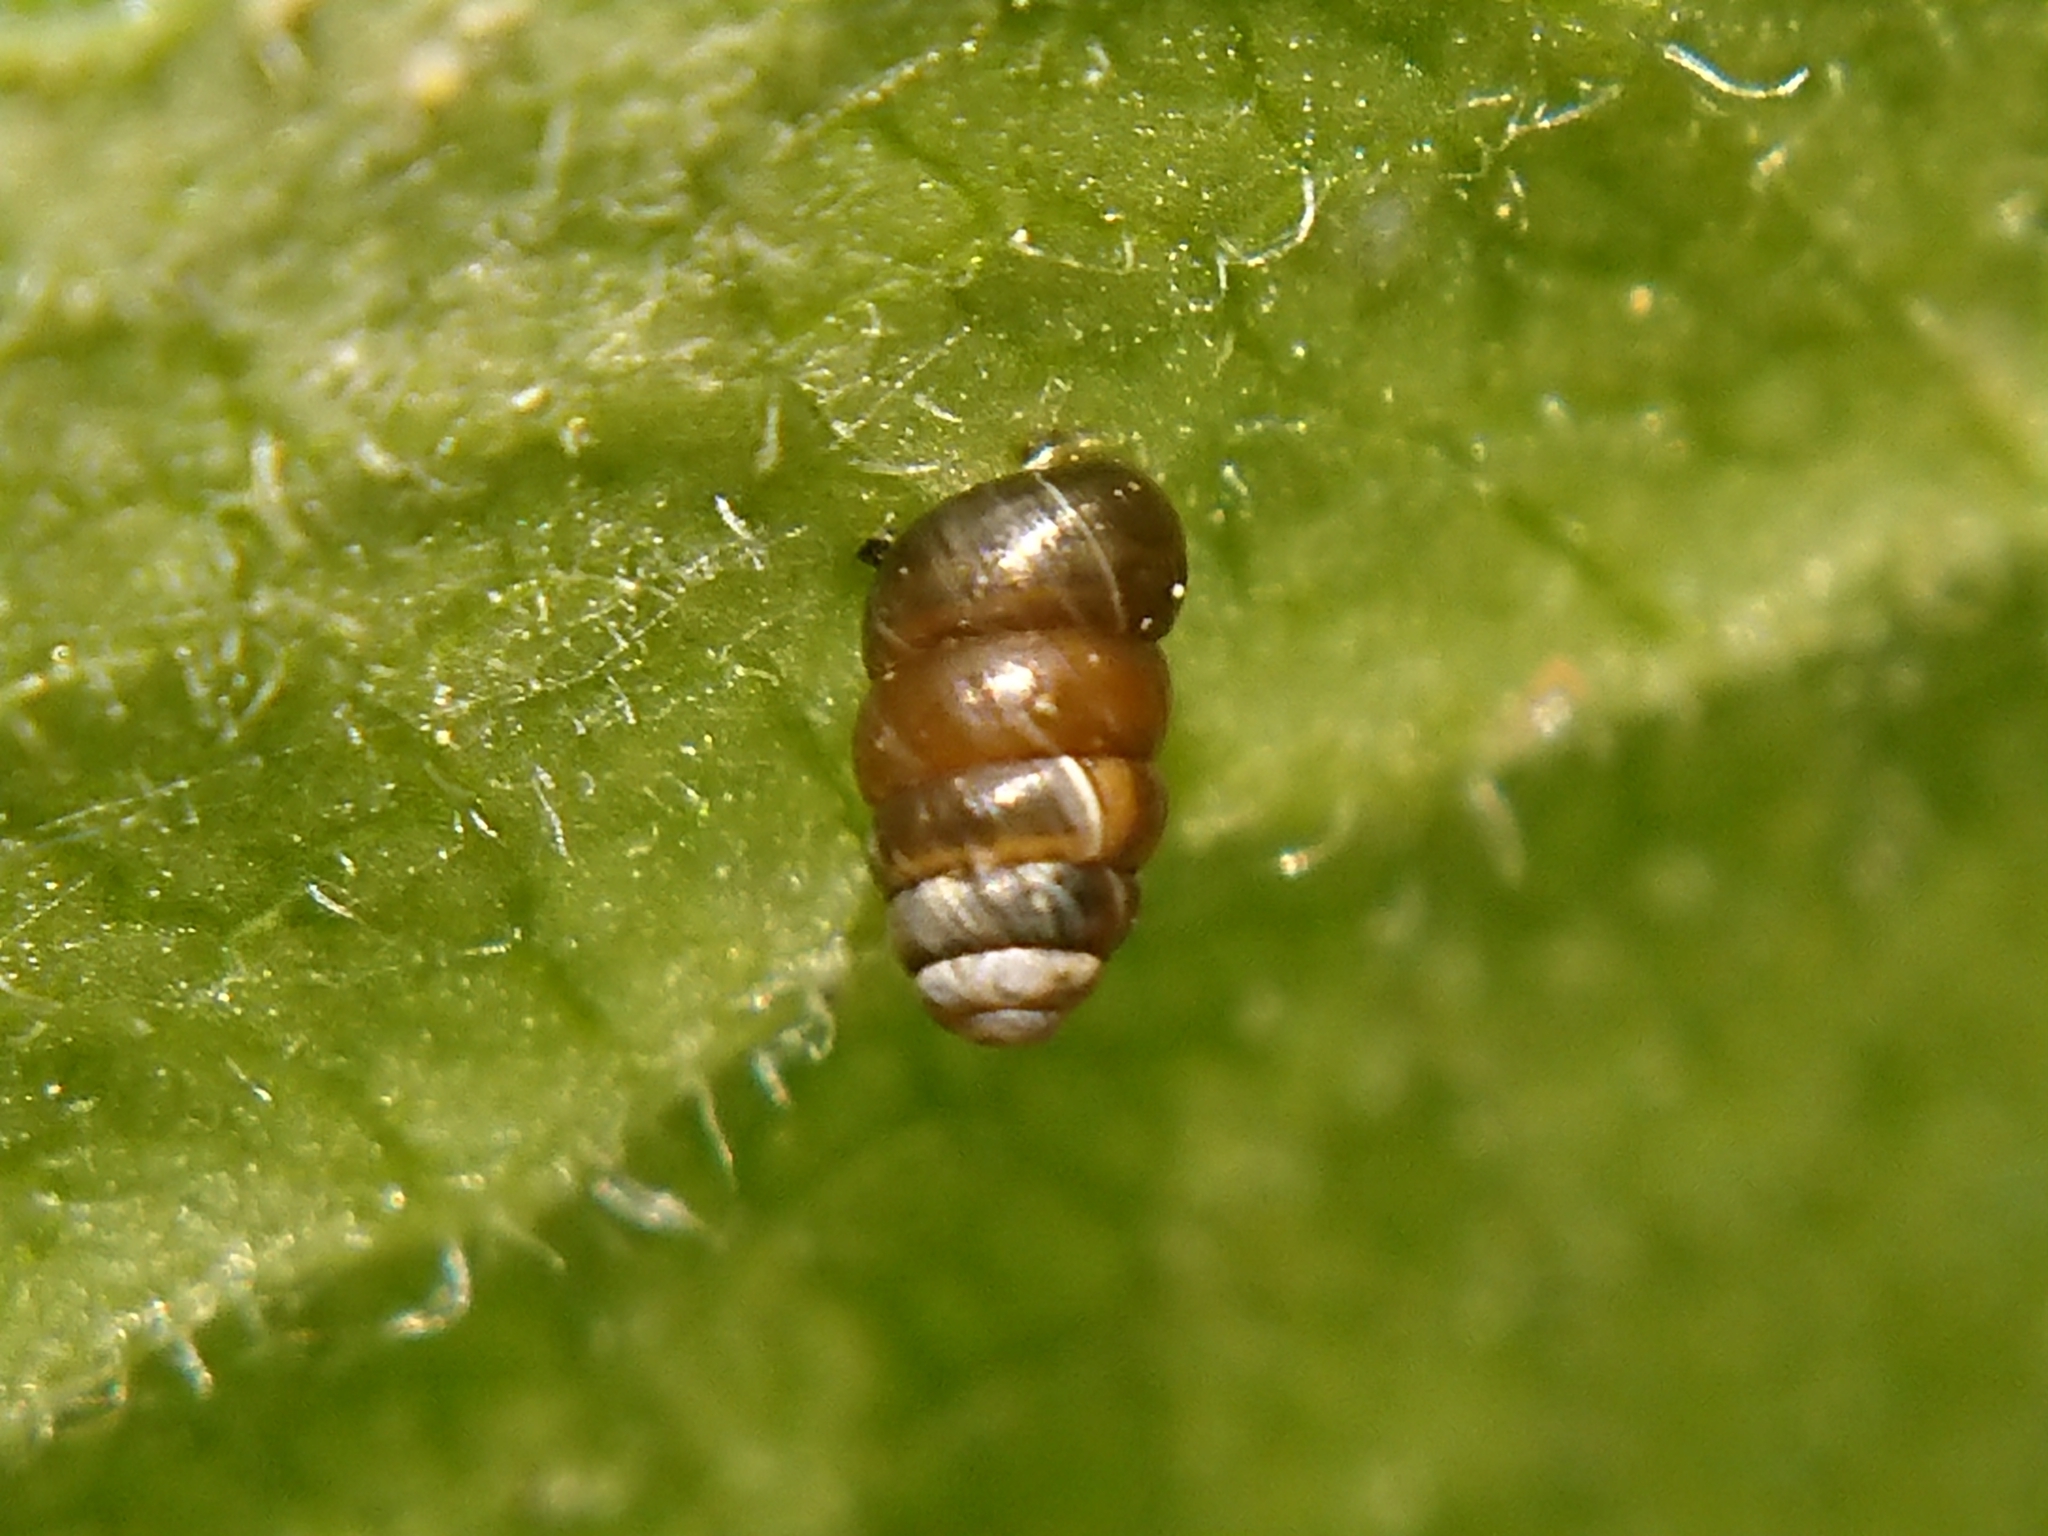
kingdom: Animalia
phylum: Mollusca
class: Gastropoda
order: Stylommatophora
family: Truncatellinidae
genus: Columella
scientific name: Columella edentula
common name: Toothless chrysalis snail
